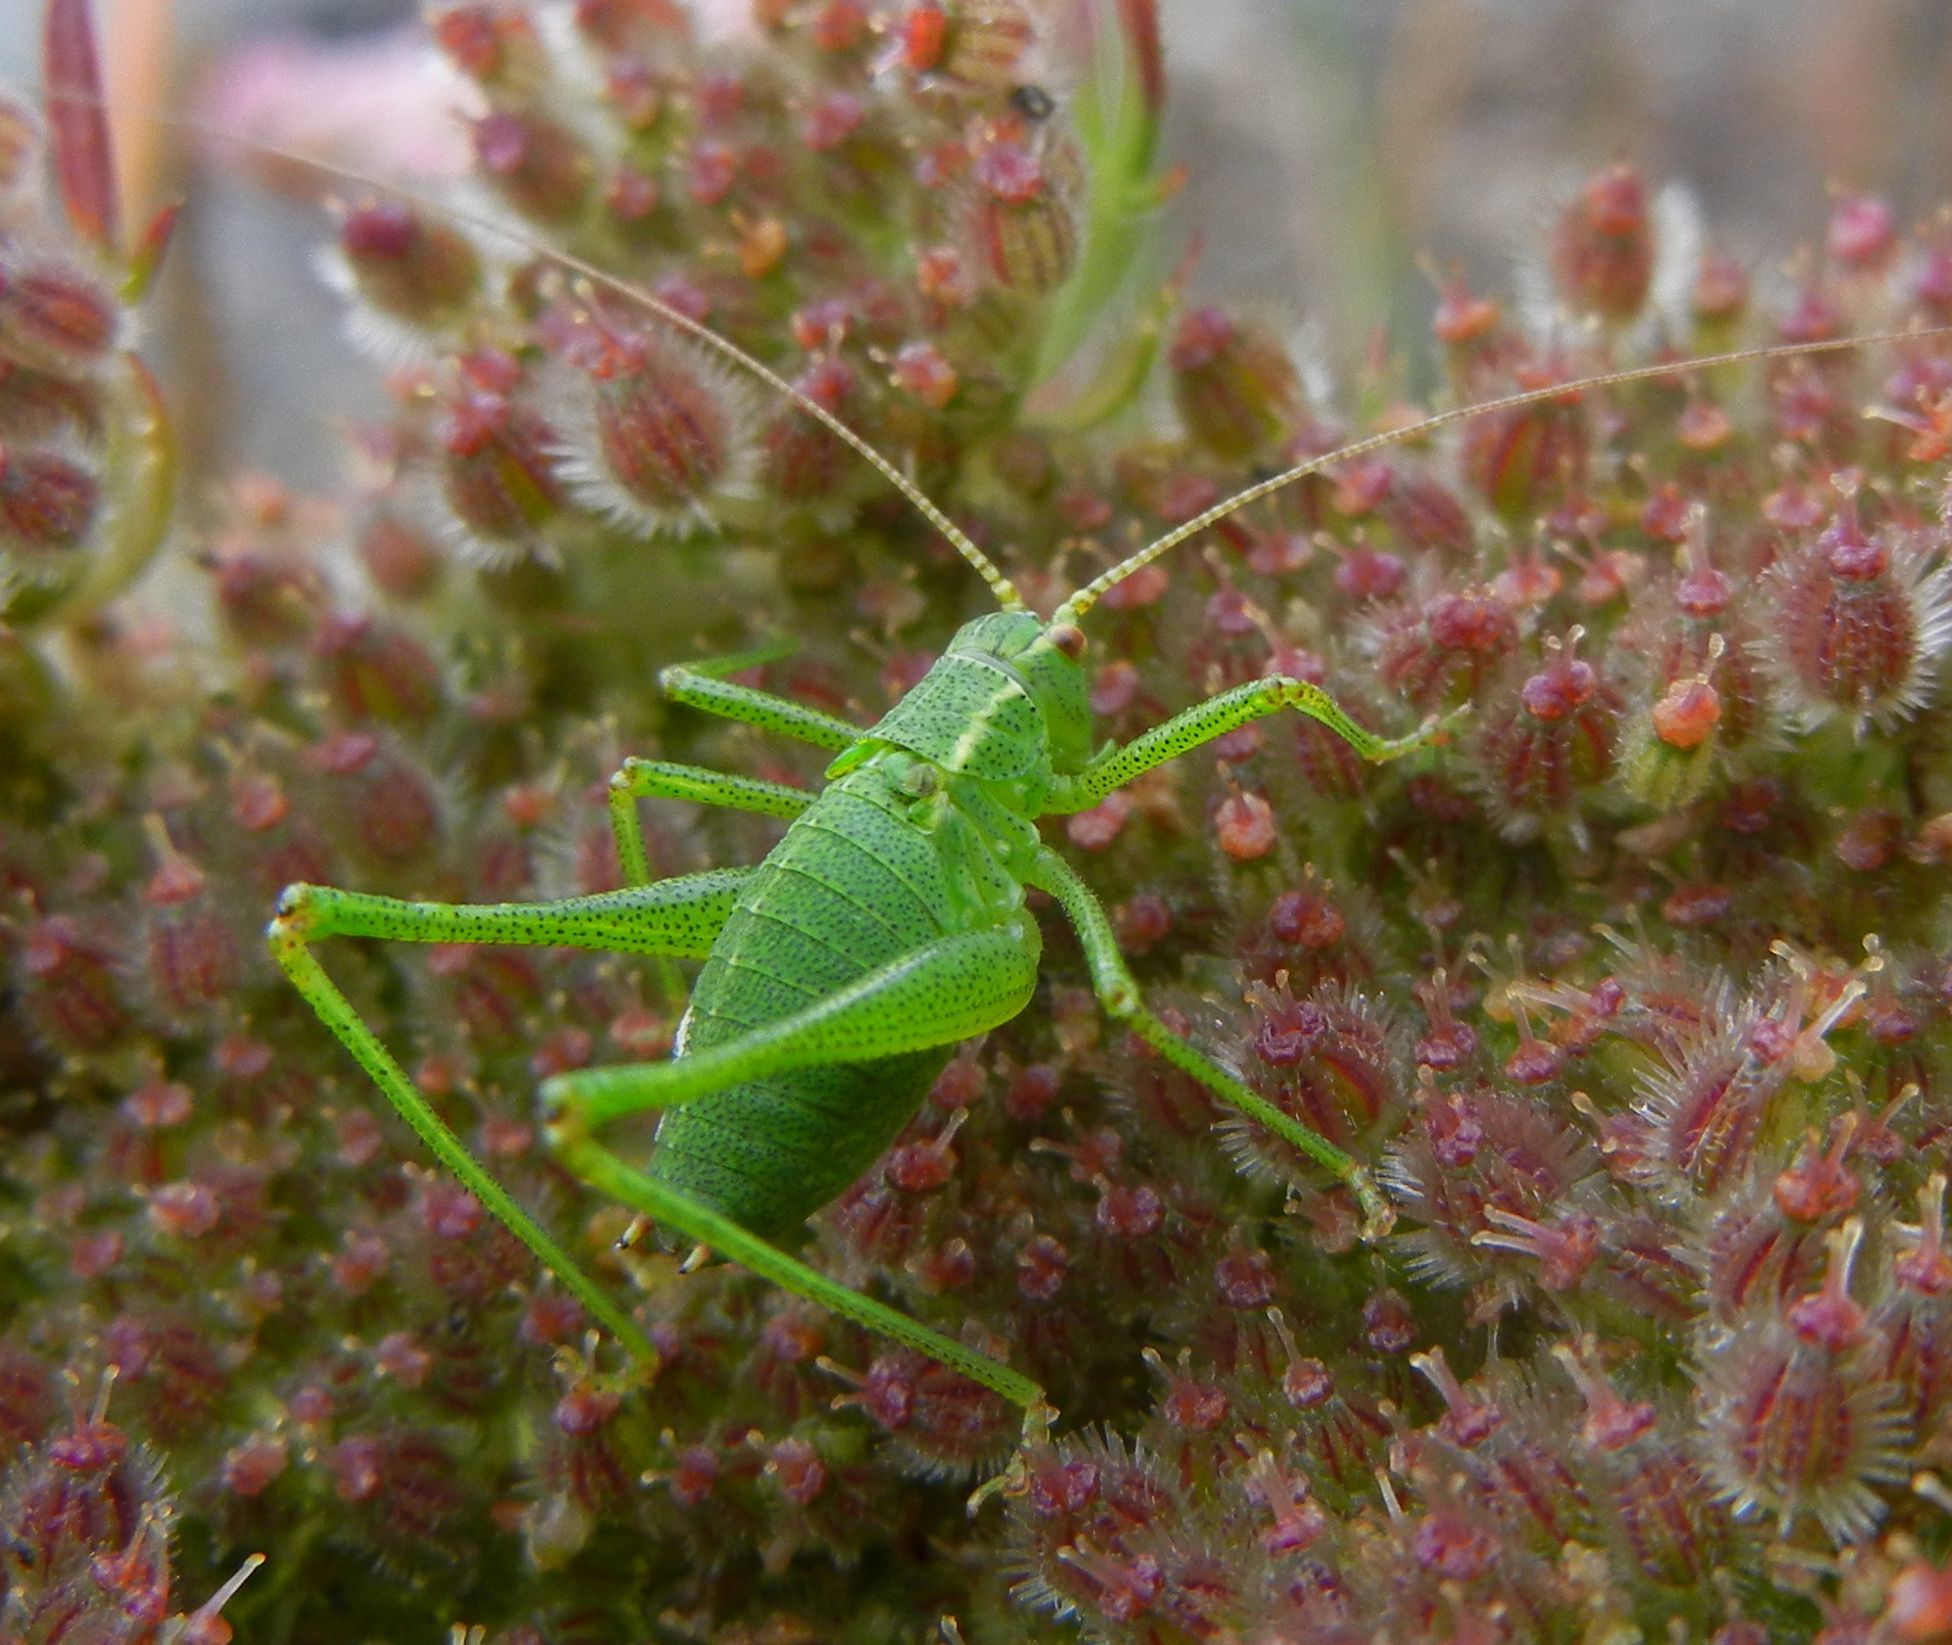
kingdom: Animalia
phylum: Arthropoda
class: Insecta
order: Orthoptera
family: Tettigoniidae
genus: Leptophyes
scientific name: Leptophyes punctatissima
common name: Speckled bush-cricket
